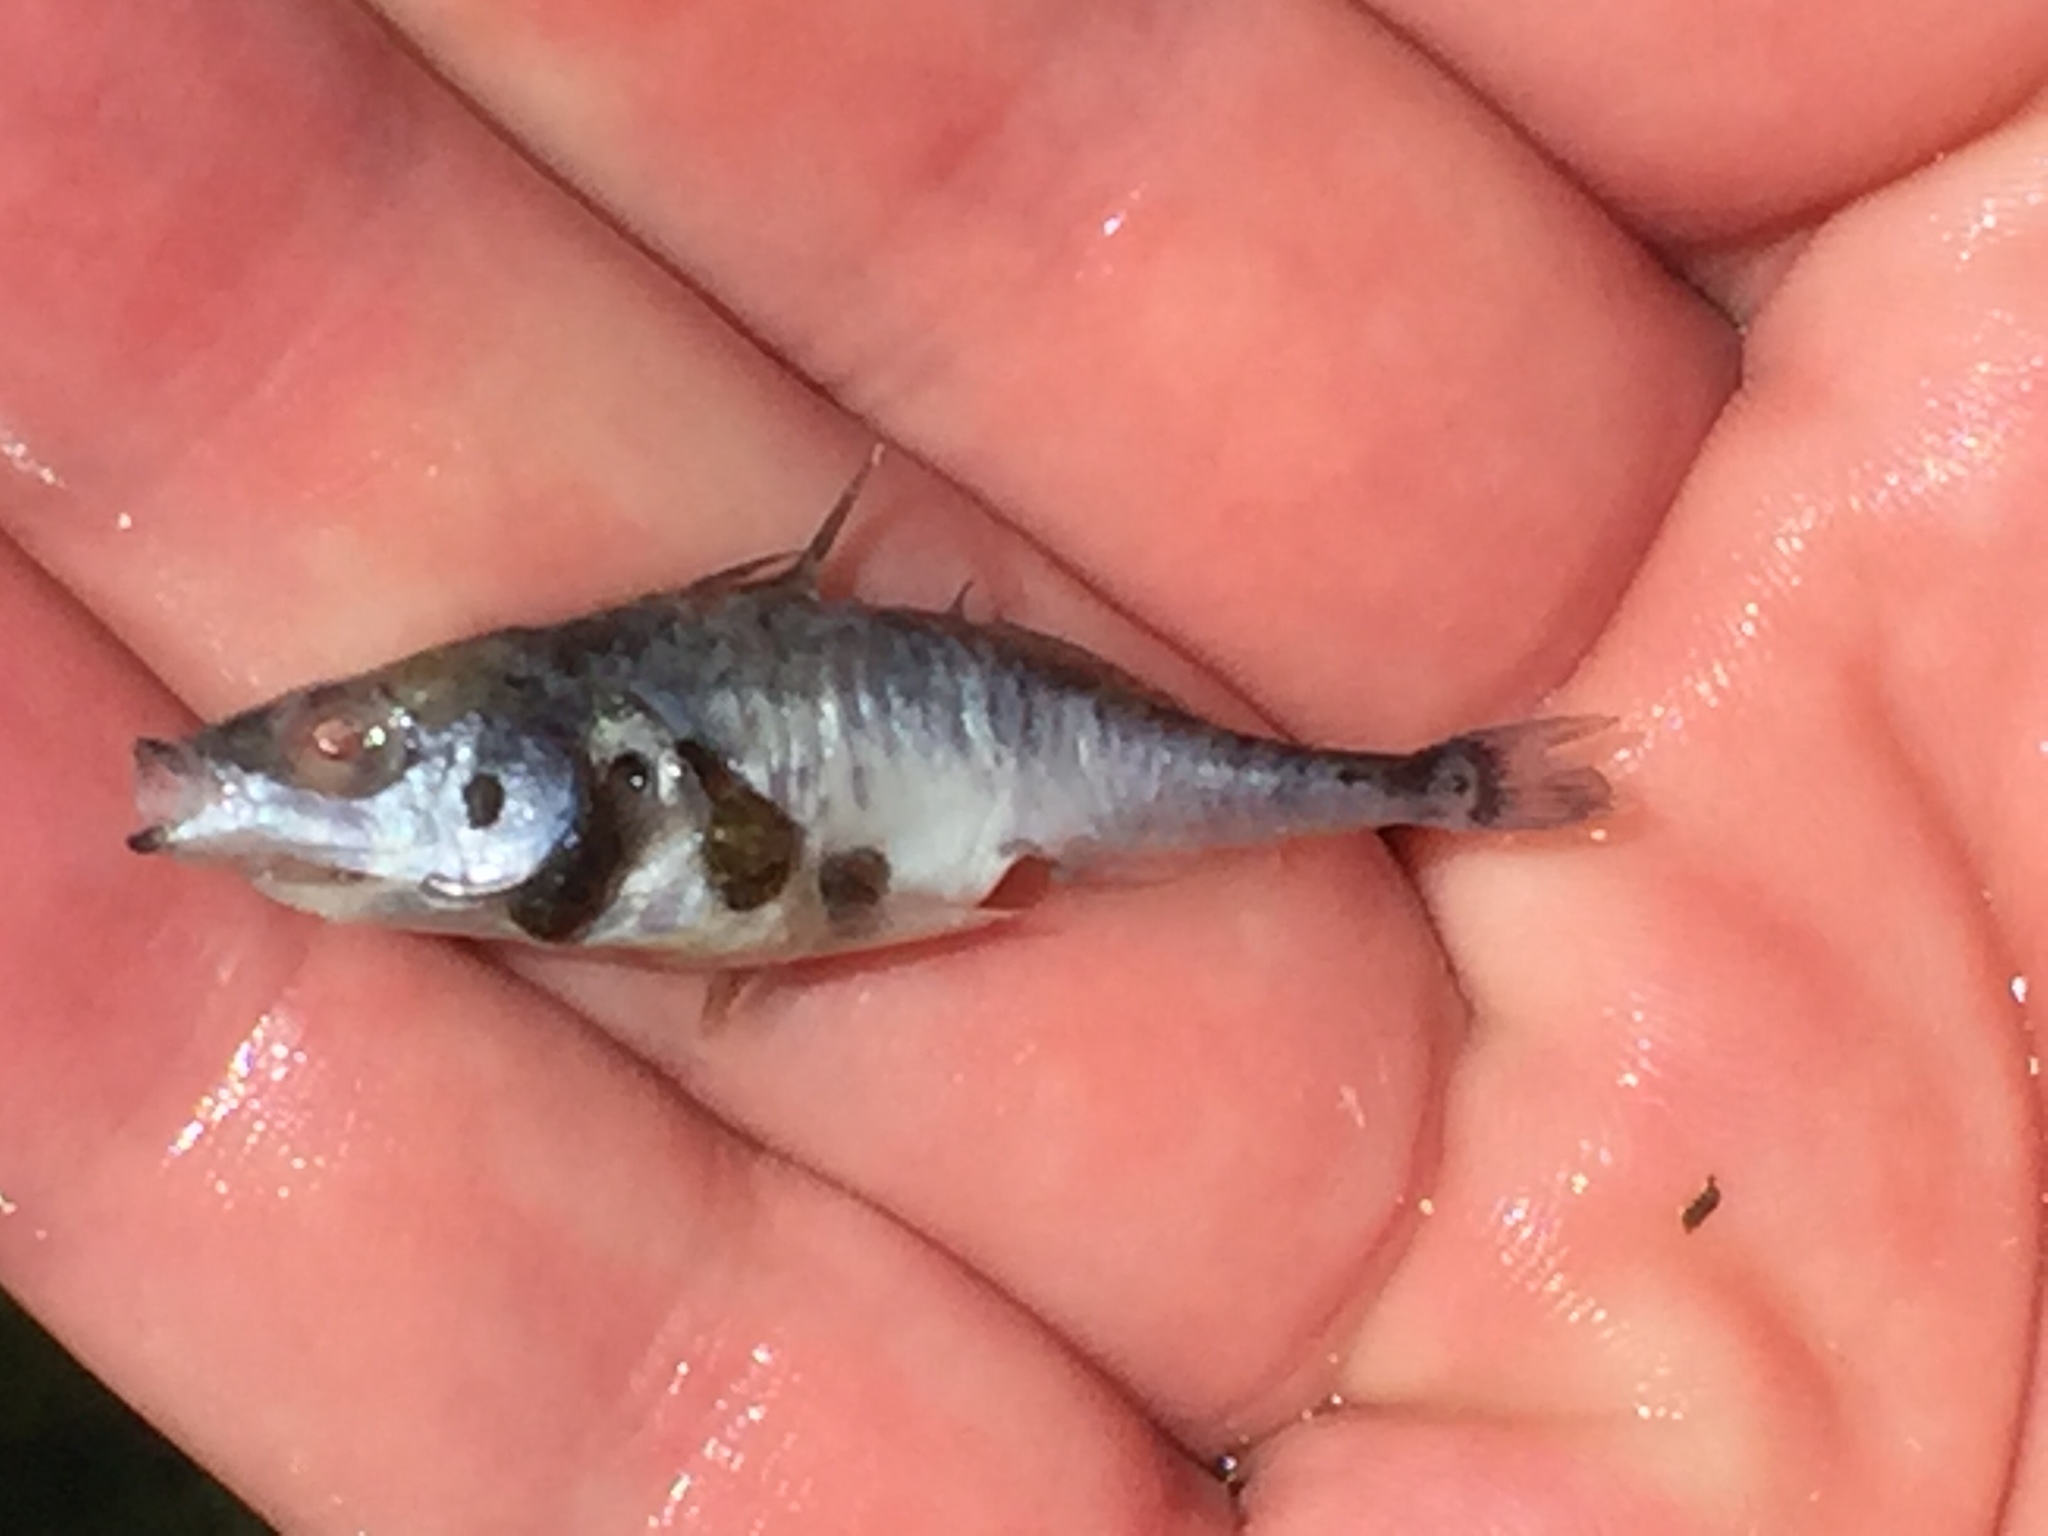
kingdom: Animalia
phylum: Chordata
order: Gasterosteiformes
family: Gasterosteidae
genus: Gasterosteus
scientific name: Gasterosteus aculeatus
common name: Three-spined stickleback
